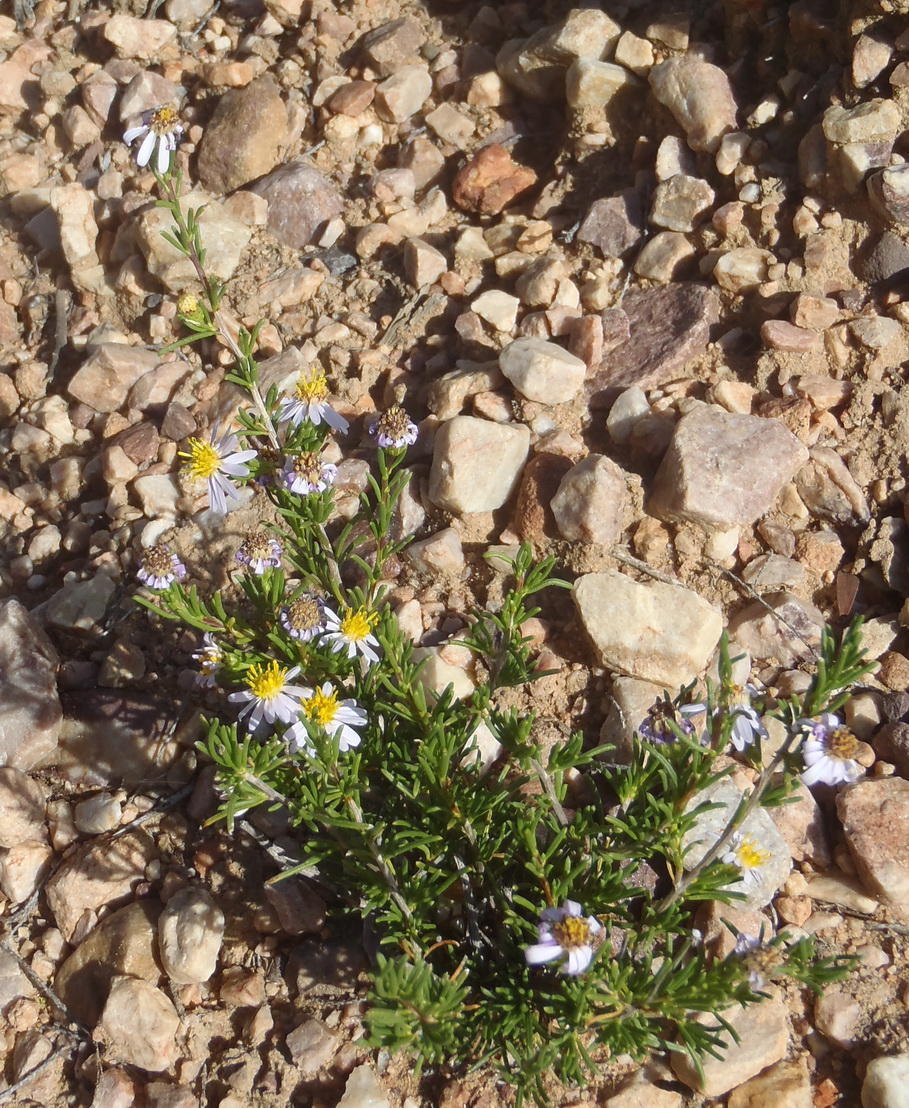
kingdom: Plantae
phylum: Tracheophyta
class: Magnoliopsida
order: Asterales
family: Asteraceae
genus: Felicia
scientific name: Felicia filifolia
